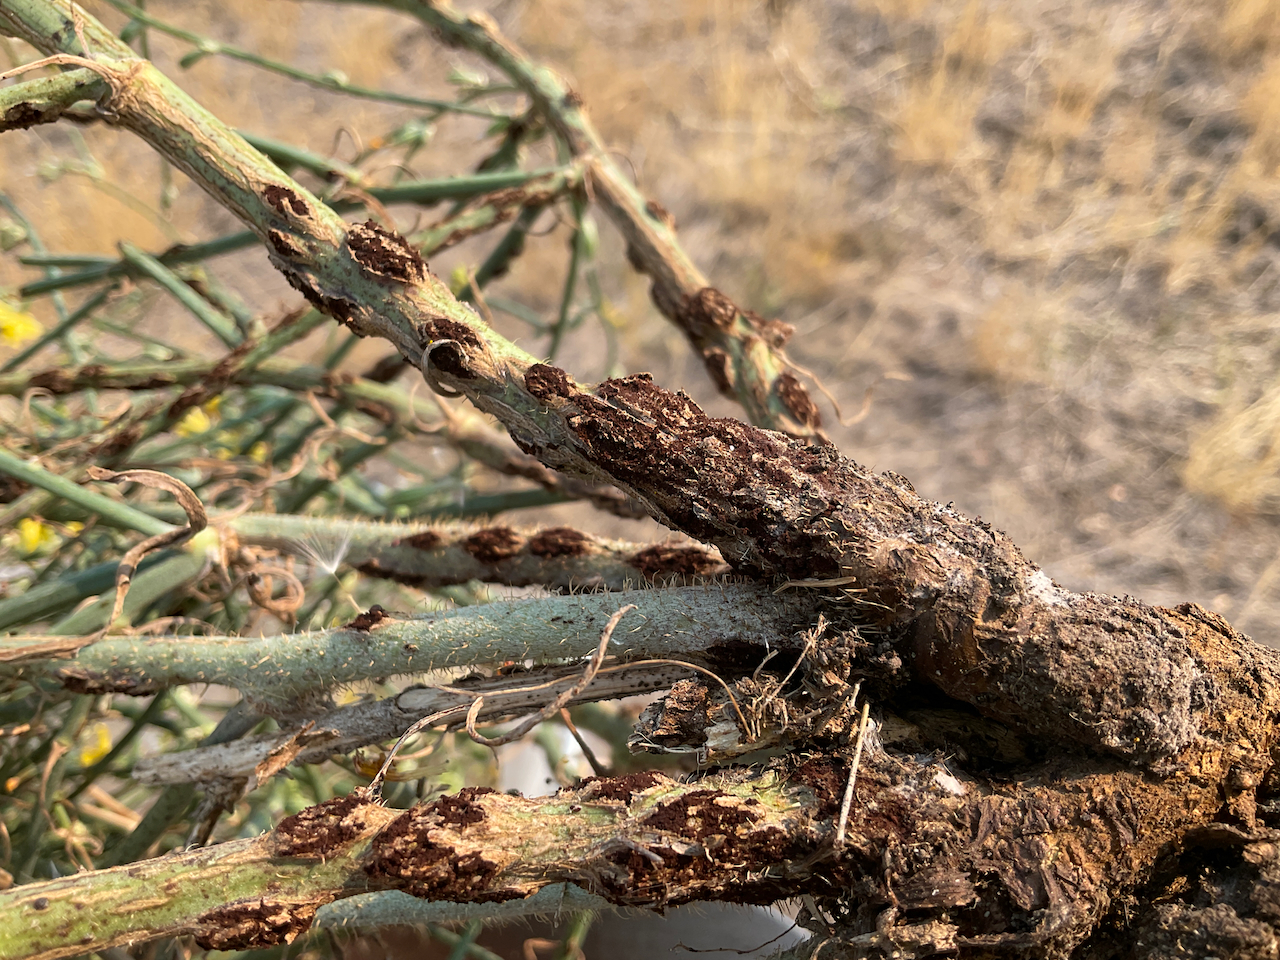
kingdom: Plantae
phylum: Tracheophyta
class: Magnoliopsida
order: Asterales
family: Asteraceae
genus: Chondrilla
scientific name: Chondrilla juncea
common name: Skeleton weed
